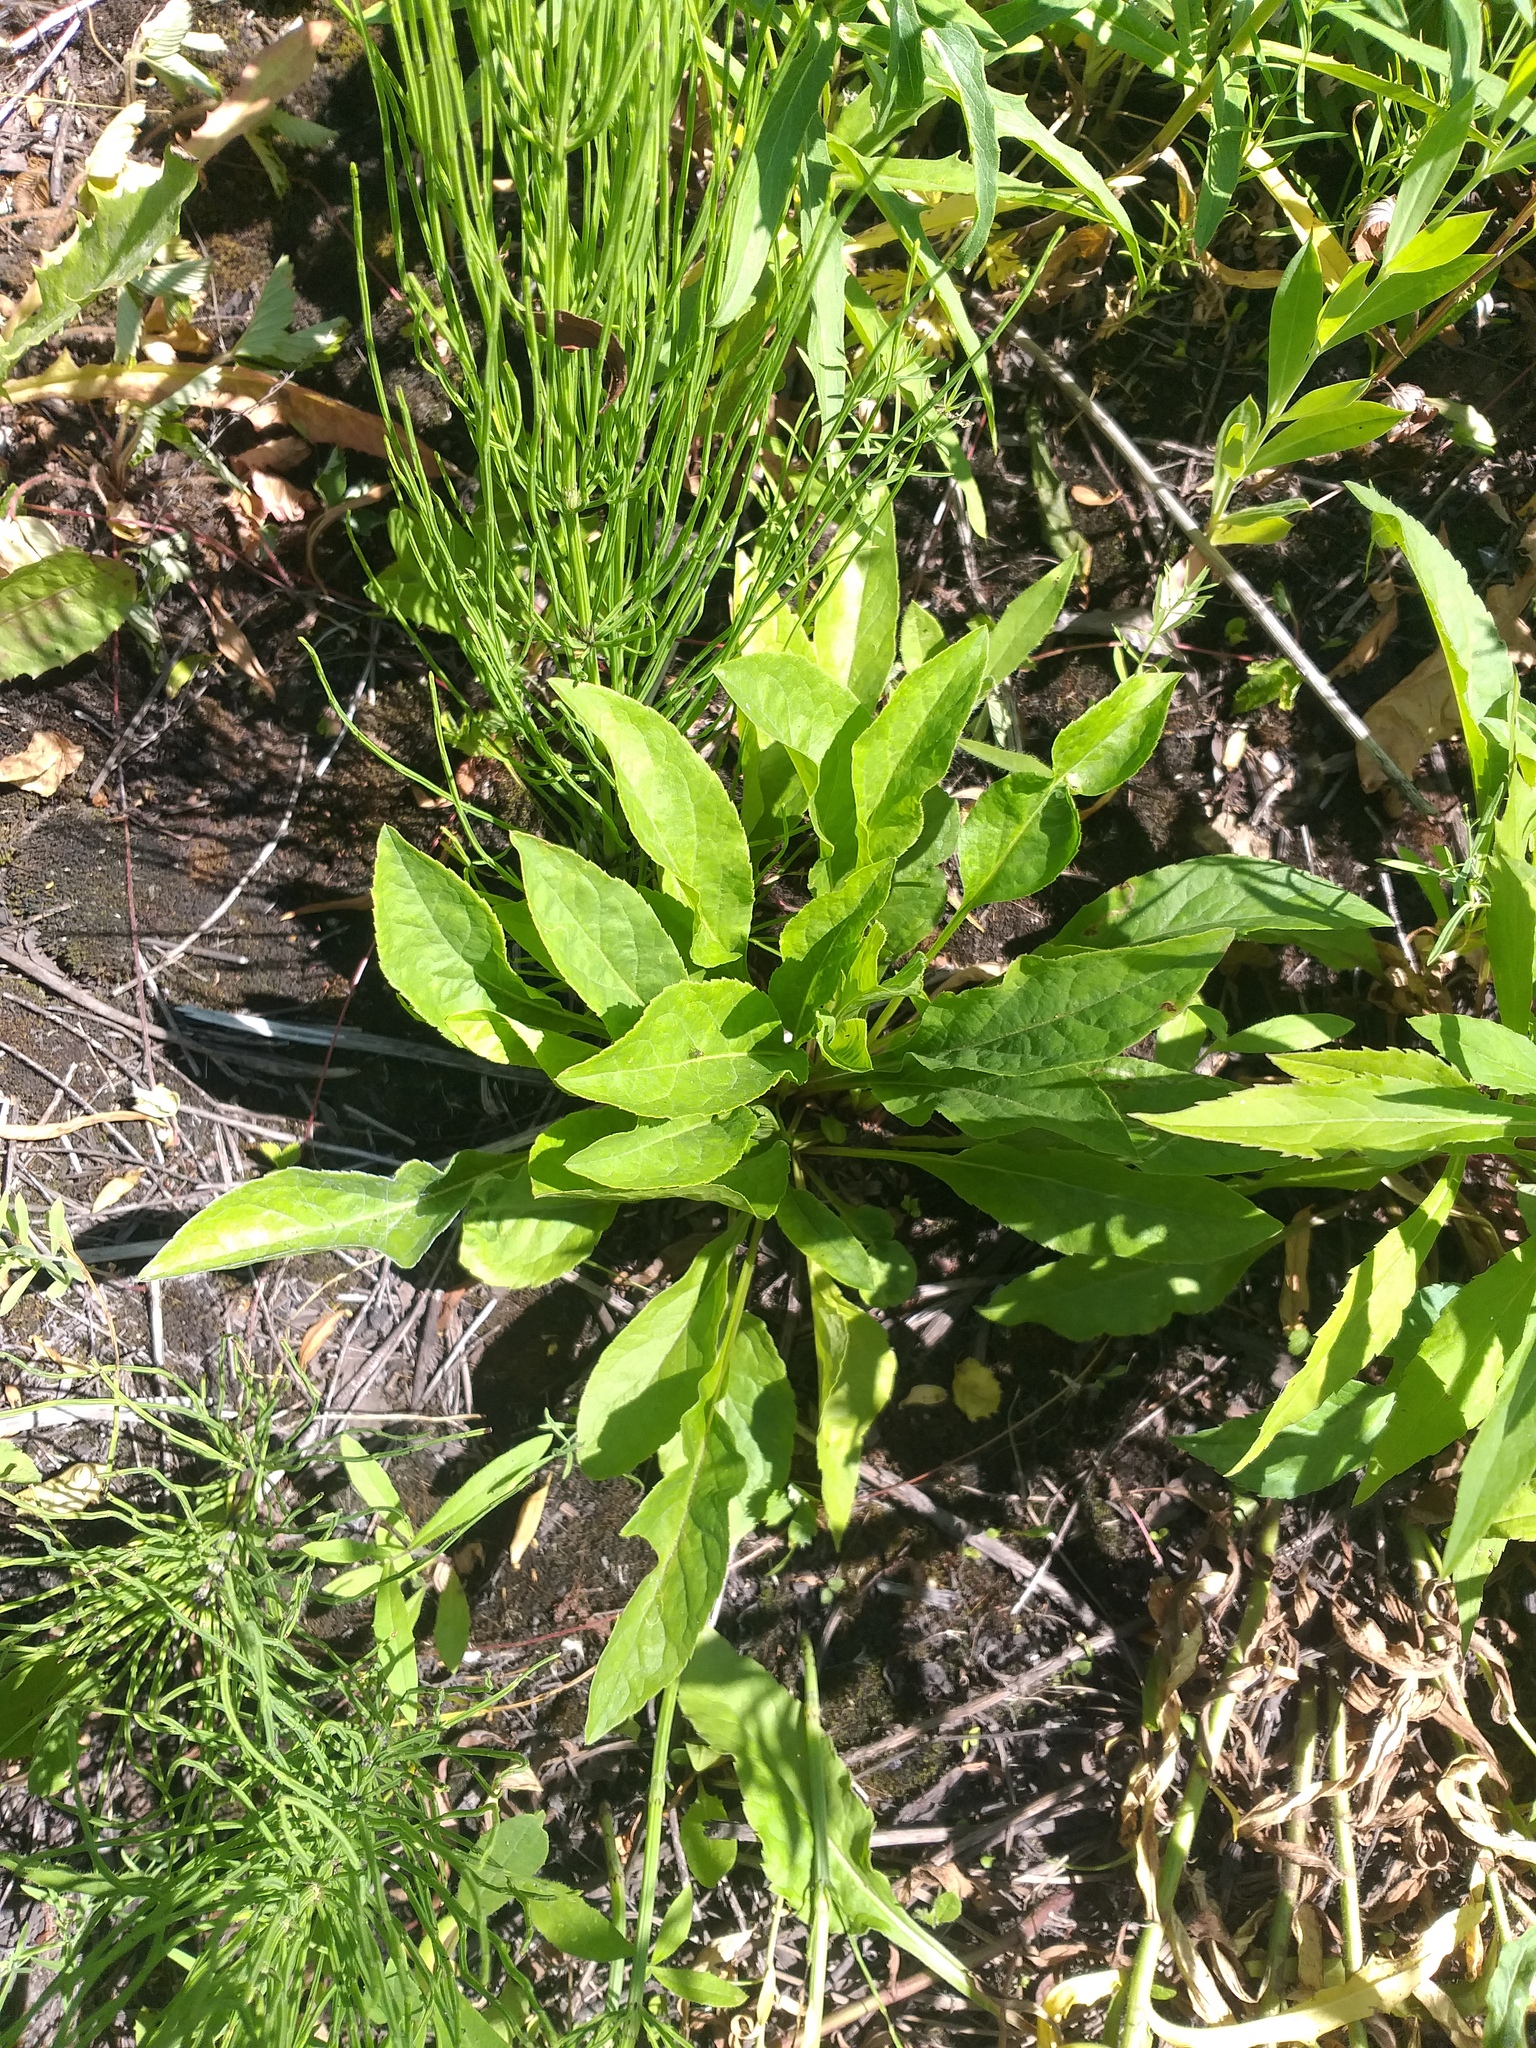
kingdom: Plantae
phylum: Tracheophyta
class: Magnoliopsida
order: Asterales
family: Asteraceae
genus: Solidago
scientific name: Solidago virgaurea
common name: Goldenrod
